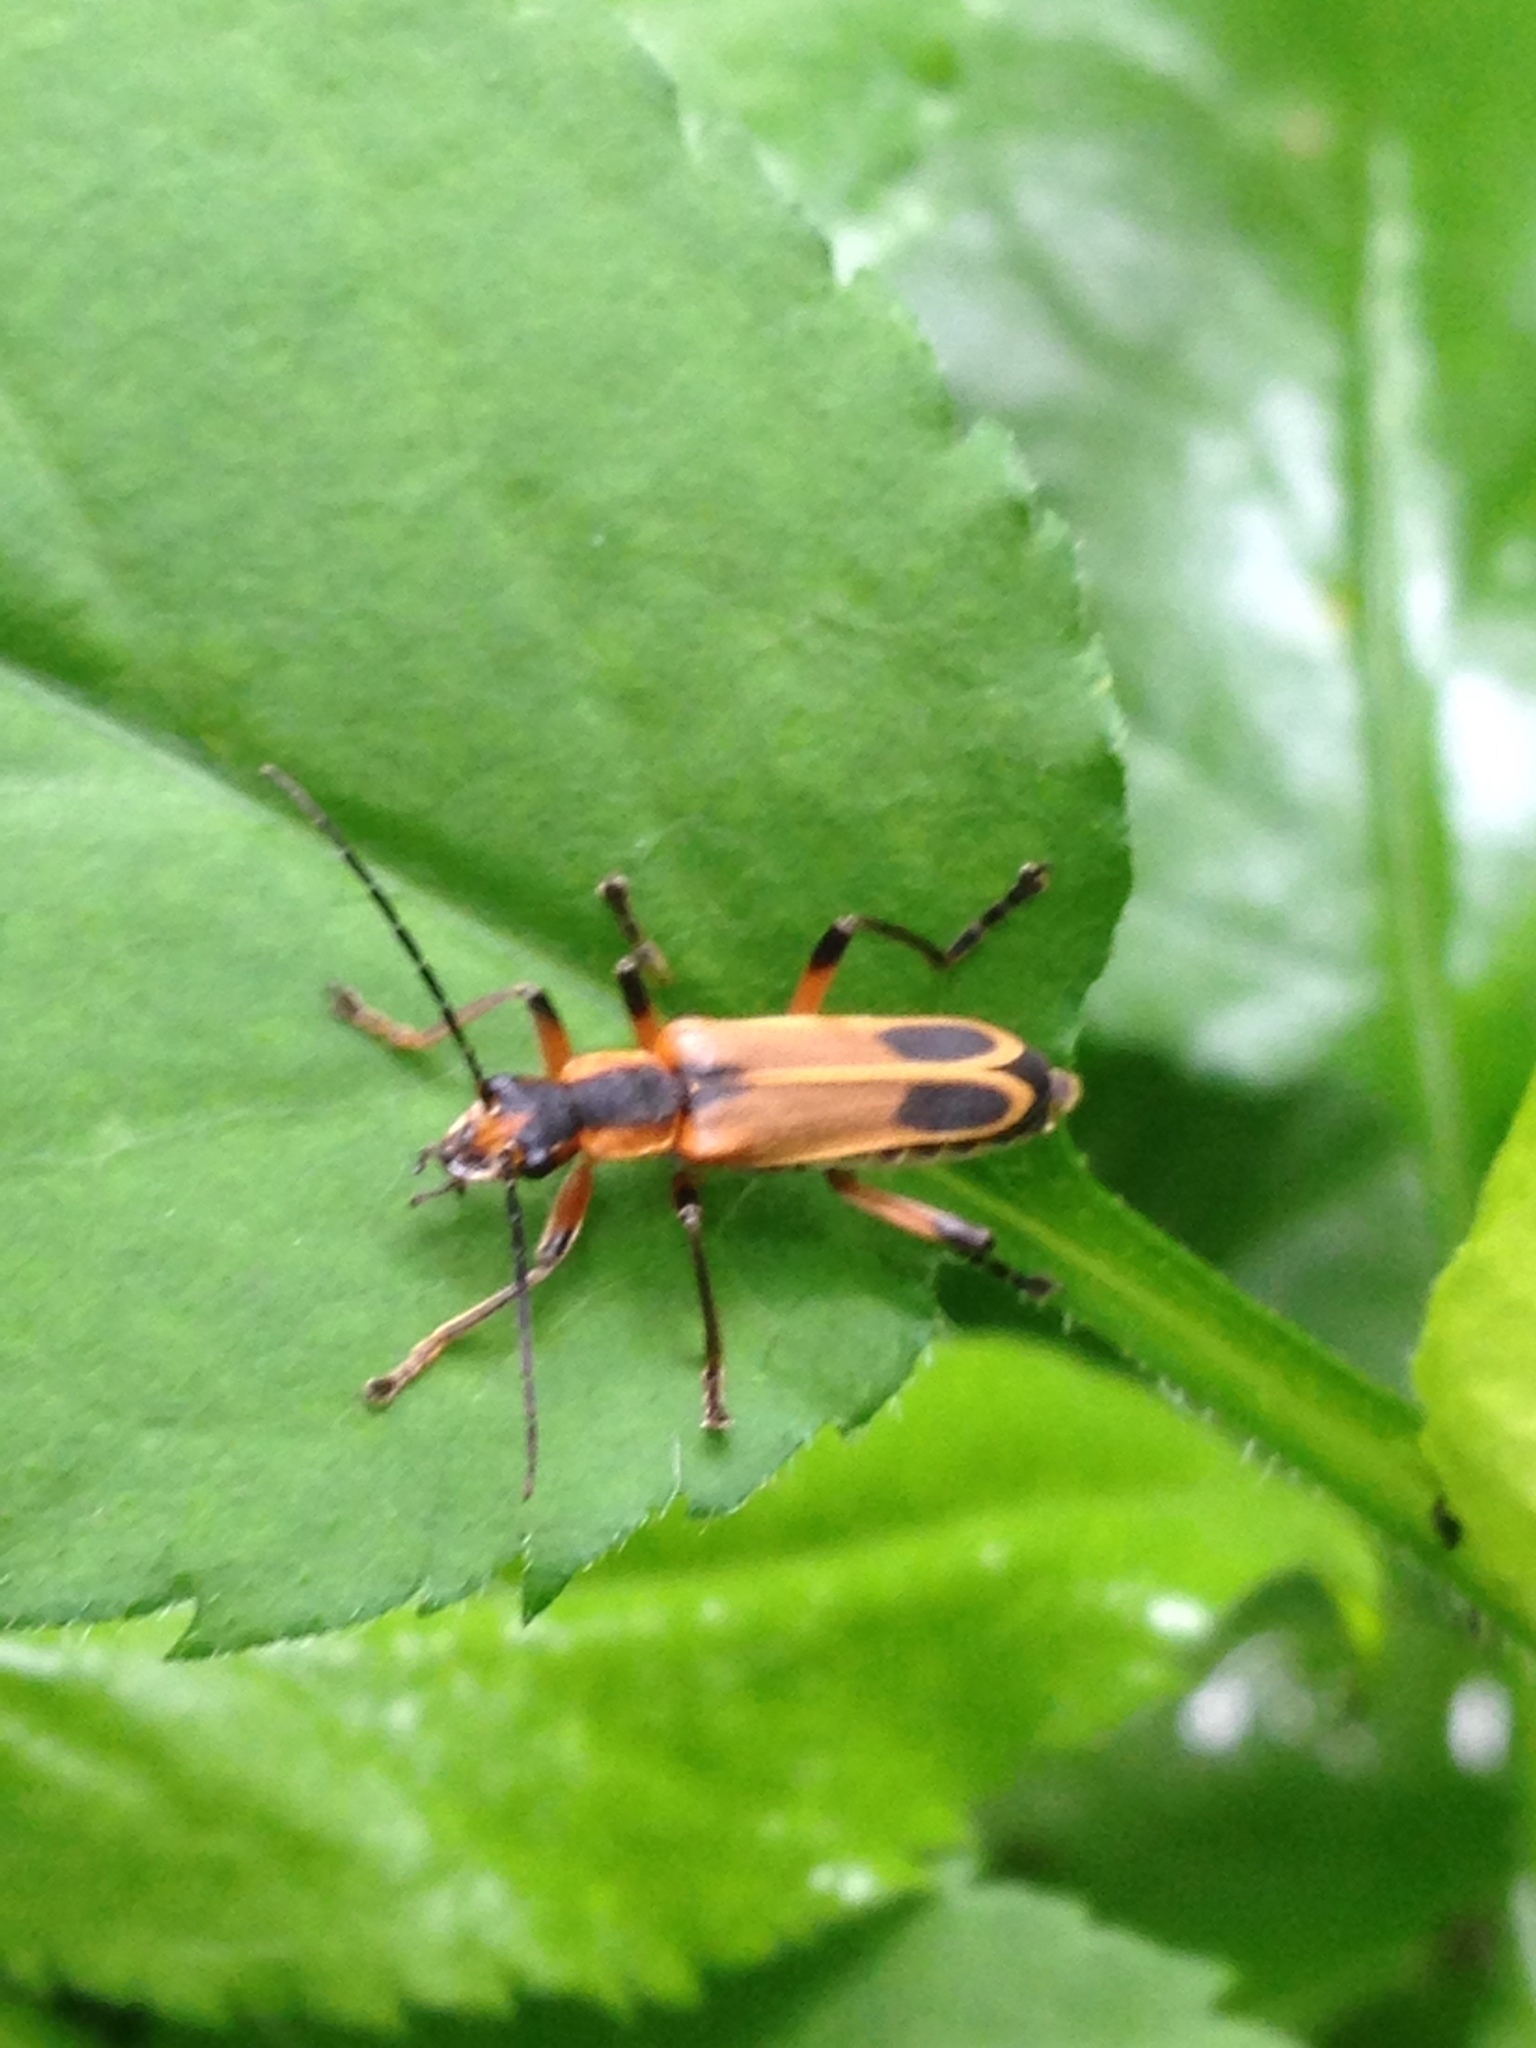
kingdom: Animalia
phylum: Arthropoda
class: Insecta
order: Coleoptera
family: Cantharidae
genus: Chauliognathus
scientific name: Chauliognathus marginatus
